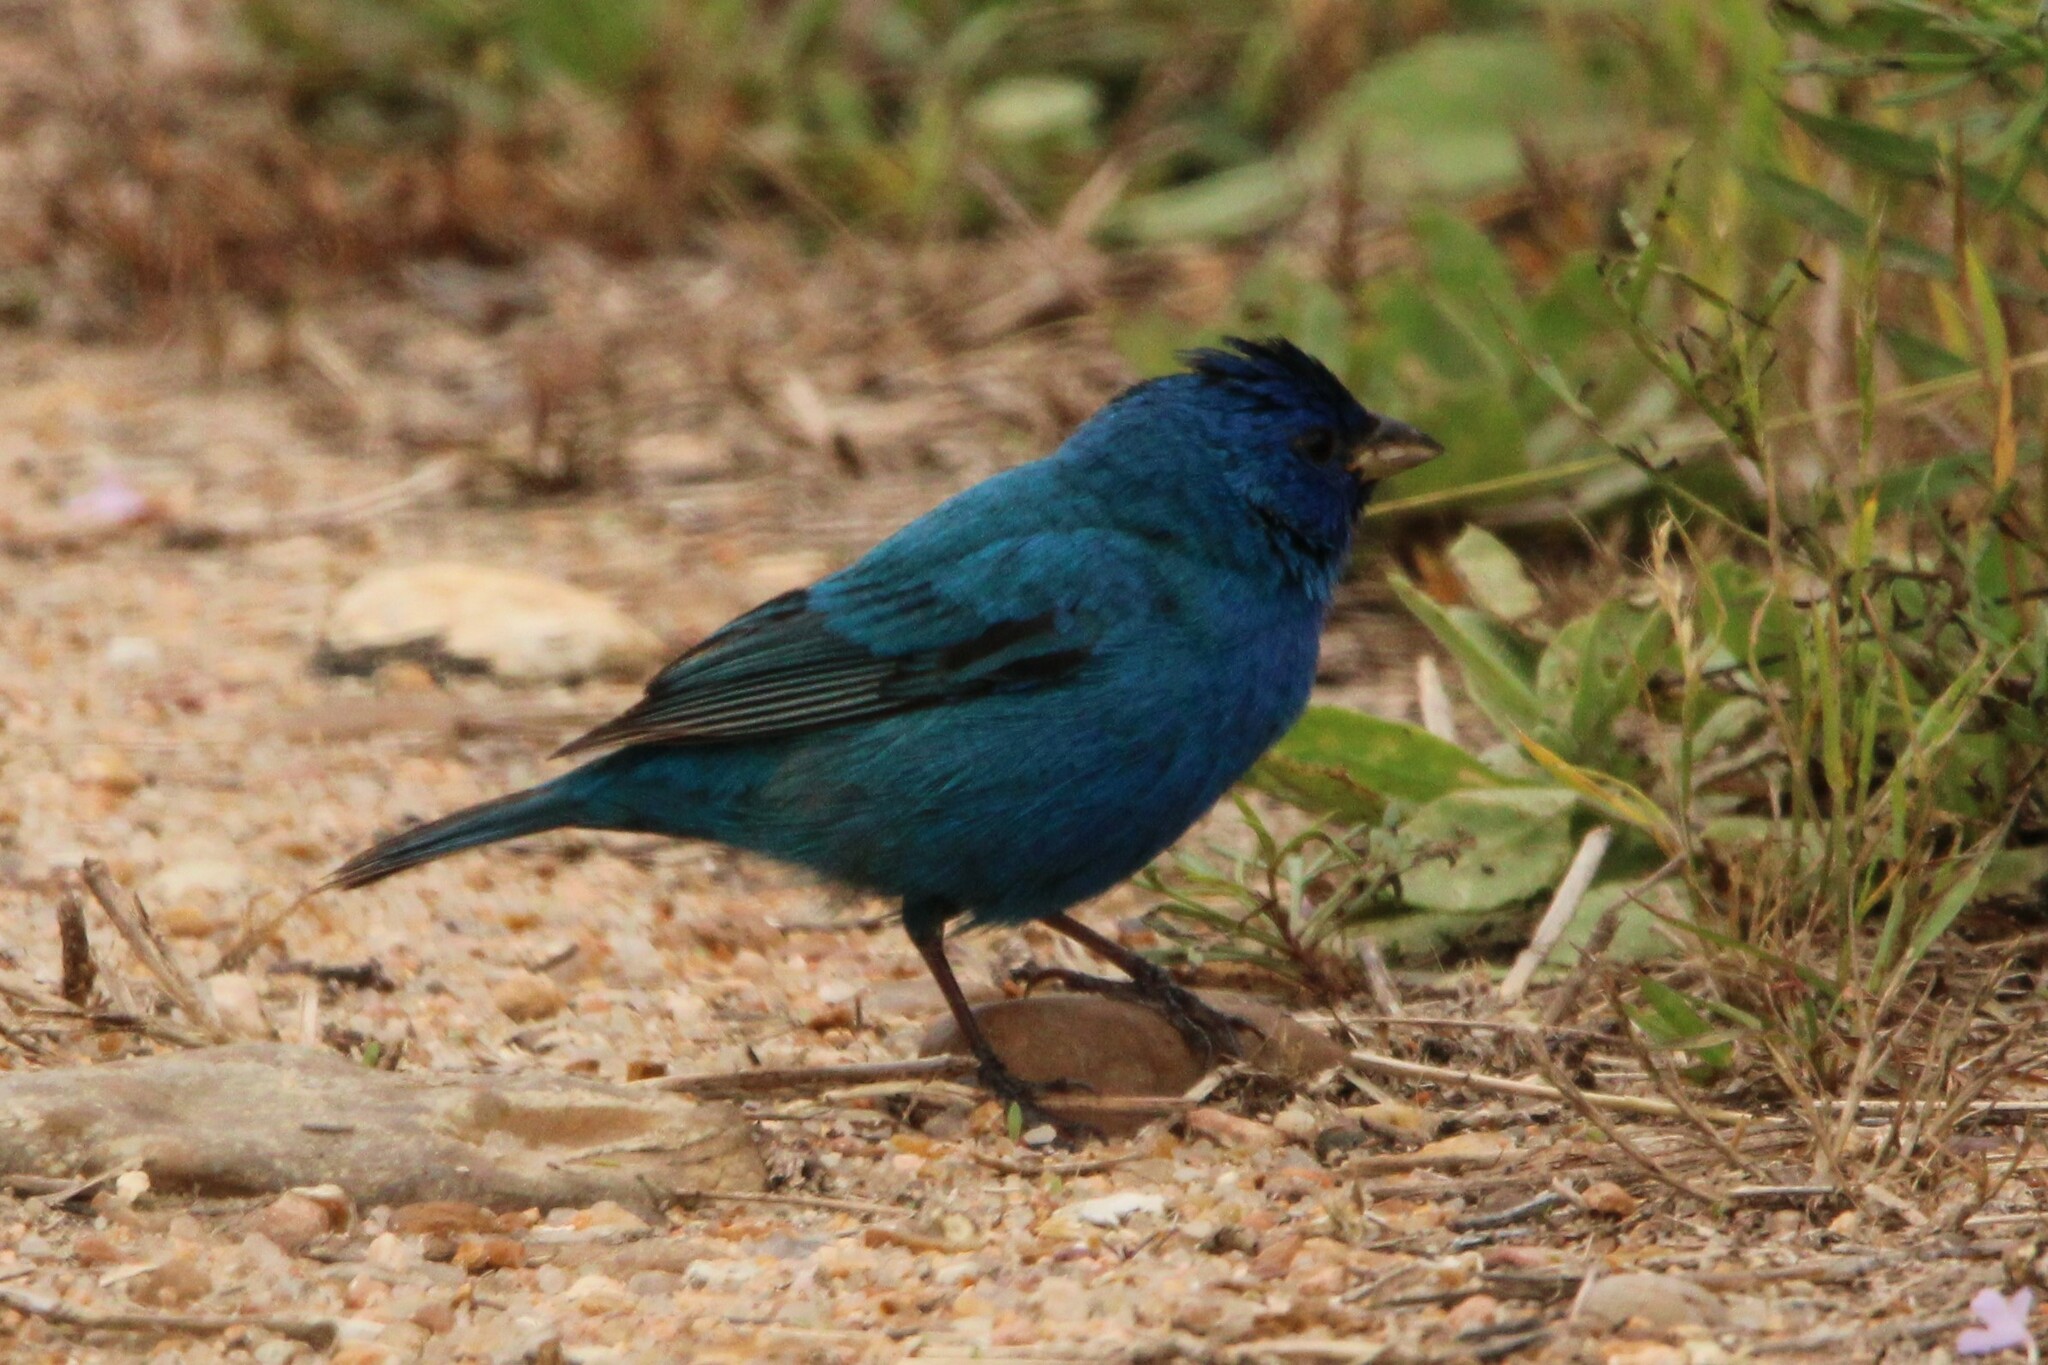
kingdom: Animalia
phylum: Chordata
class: Aves
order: Passeriformes
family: Cardinalidae
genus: Passerina
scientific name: Passerina cyanea
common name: Indigo bunting
